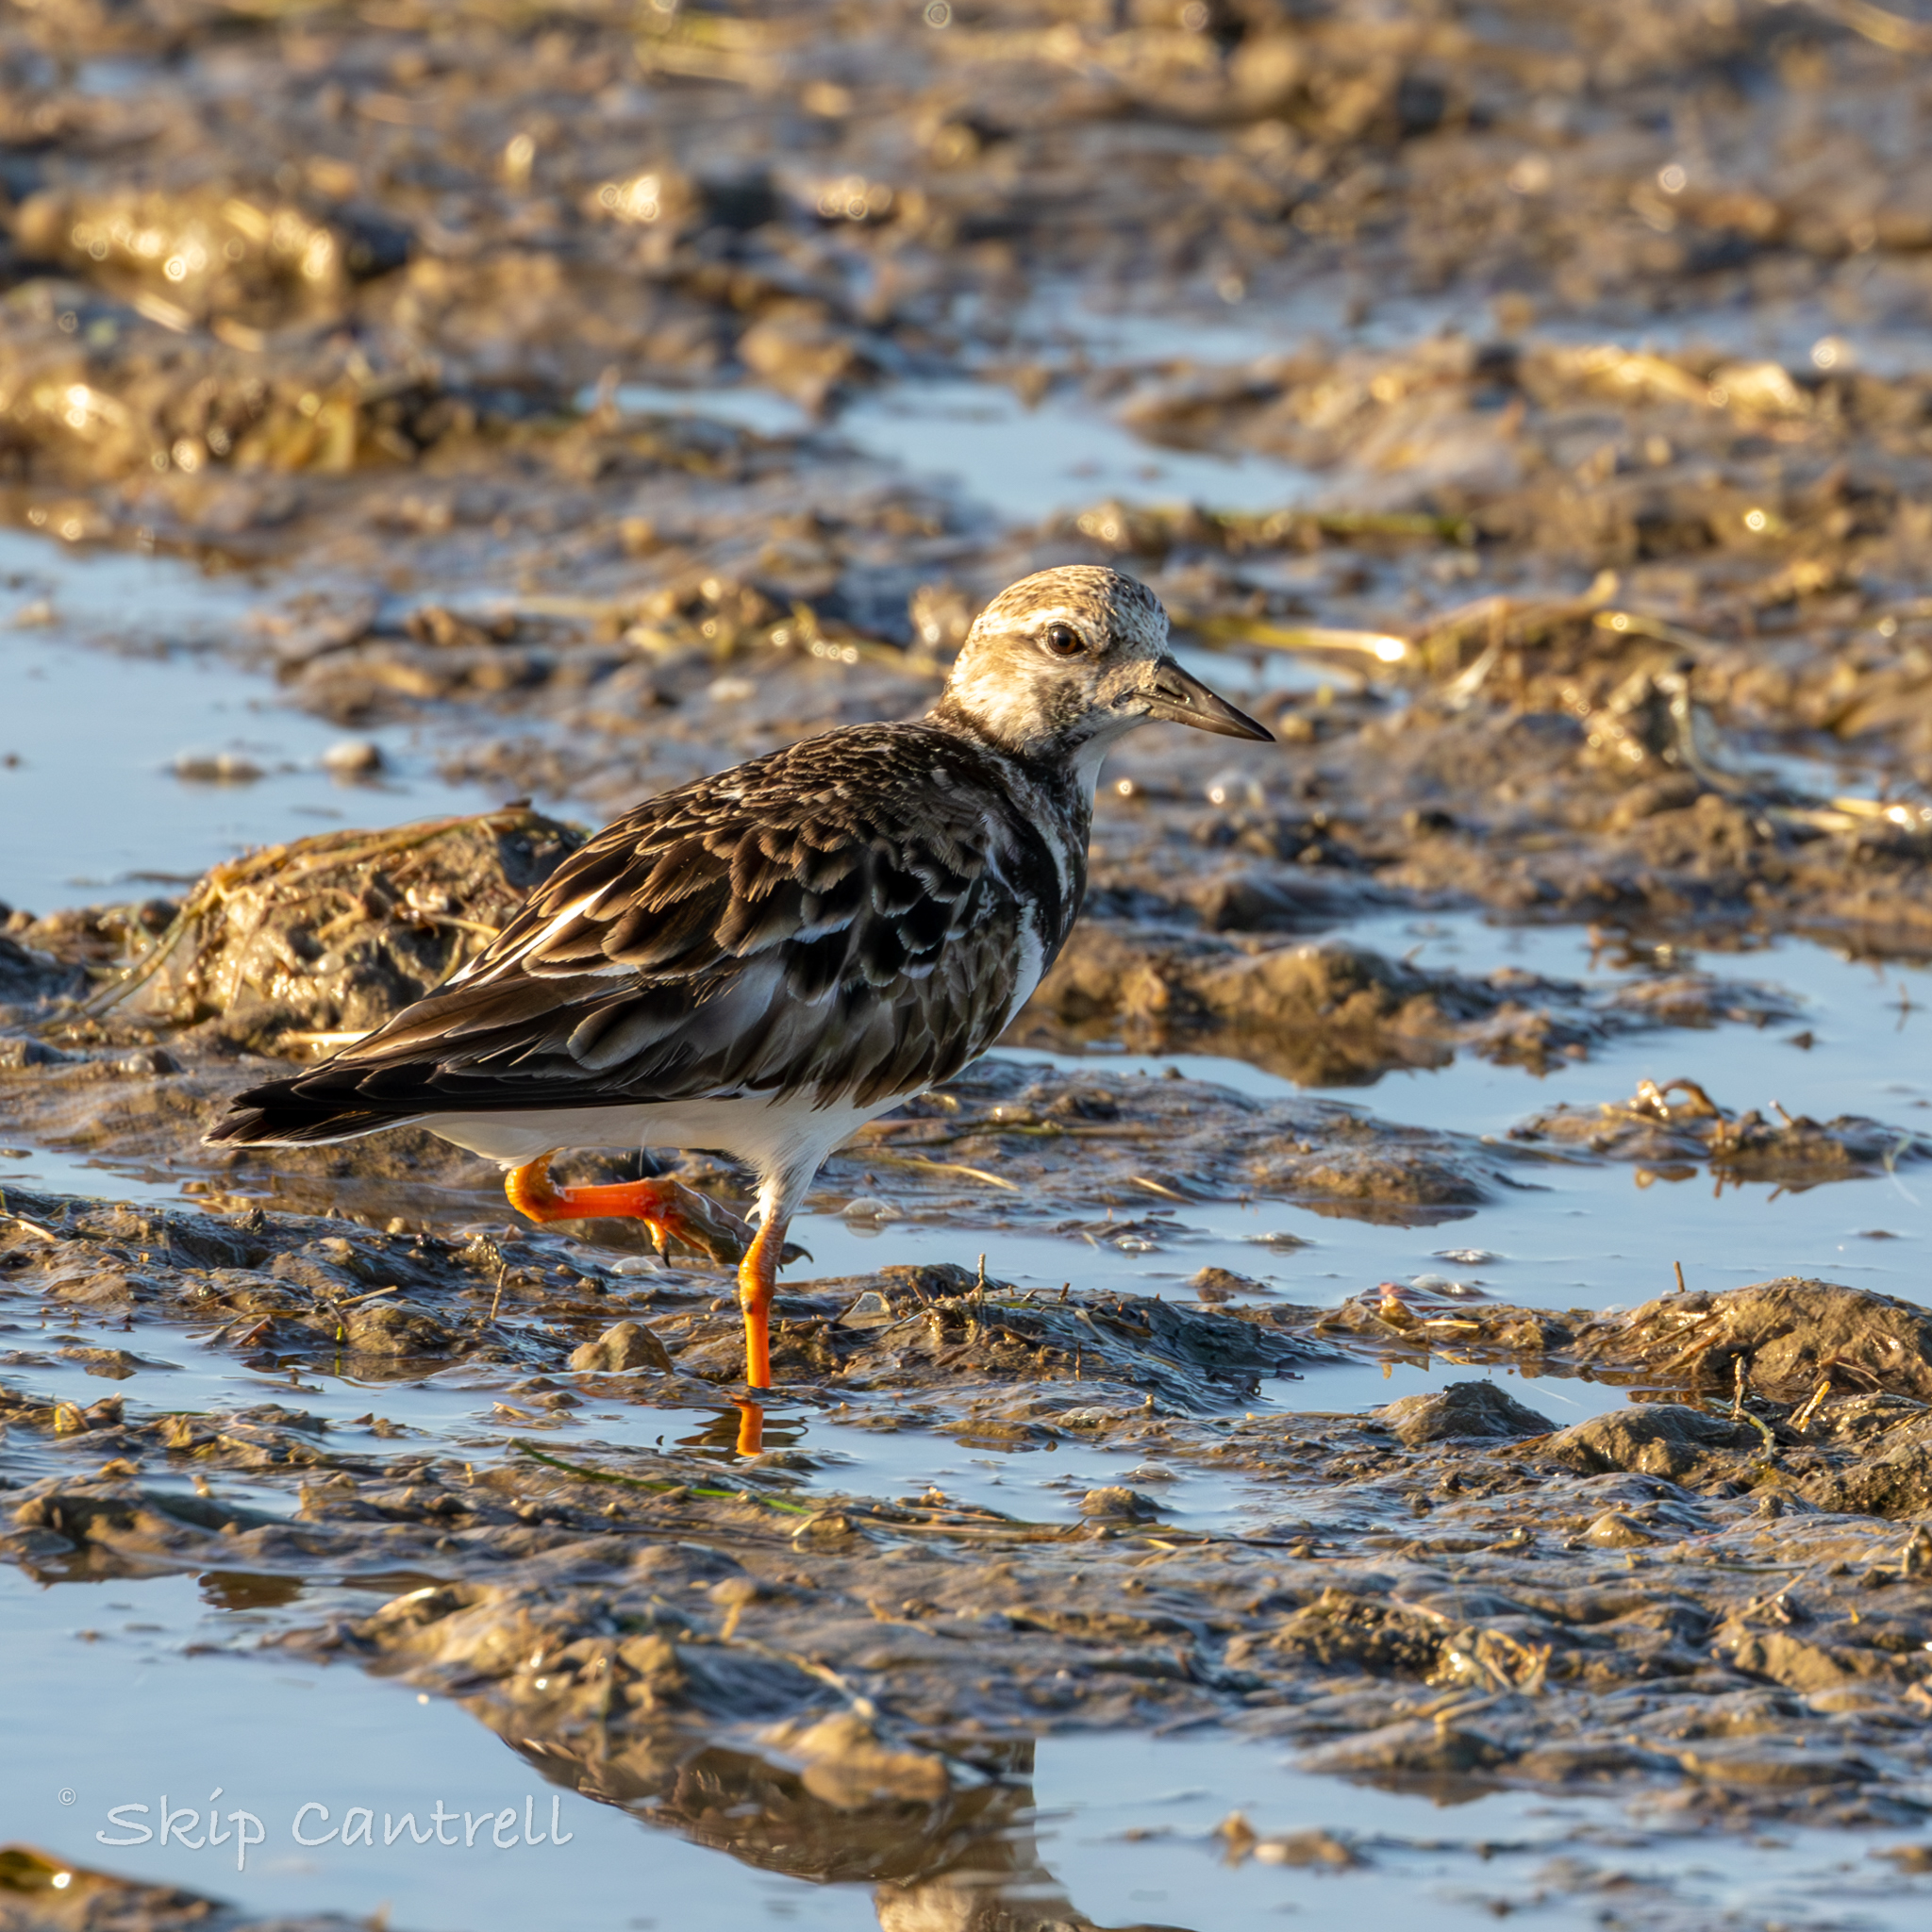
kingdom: Animalia
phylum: Chordata
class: Aves
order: Charadriiformes
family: Scolopacidae
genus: Arenaria
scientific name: Arenaria interpres
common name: Ruddy turnstone
